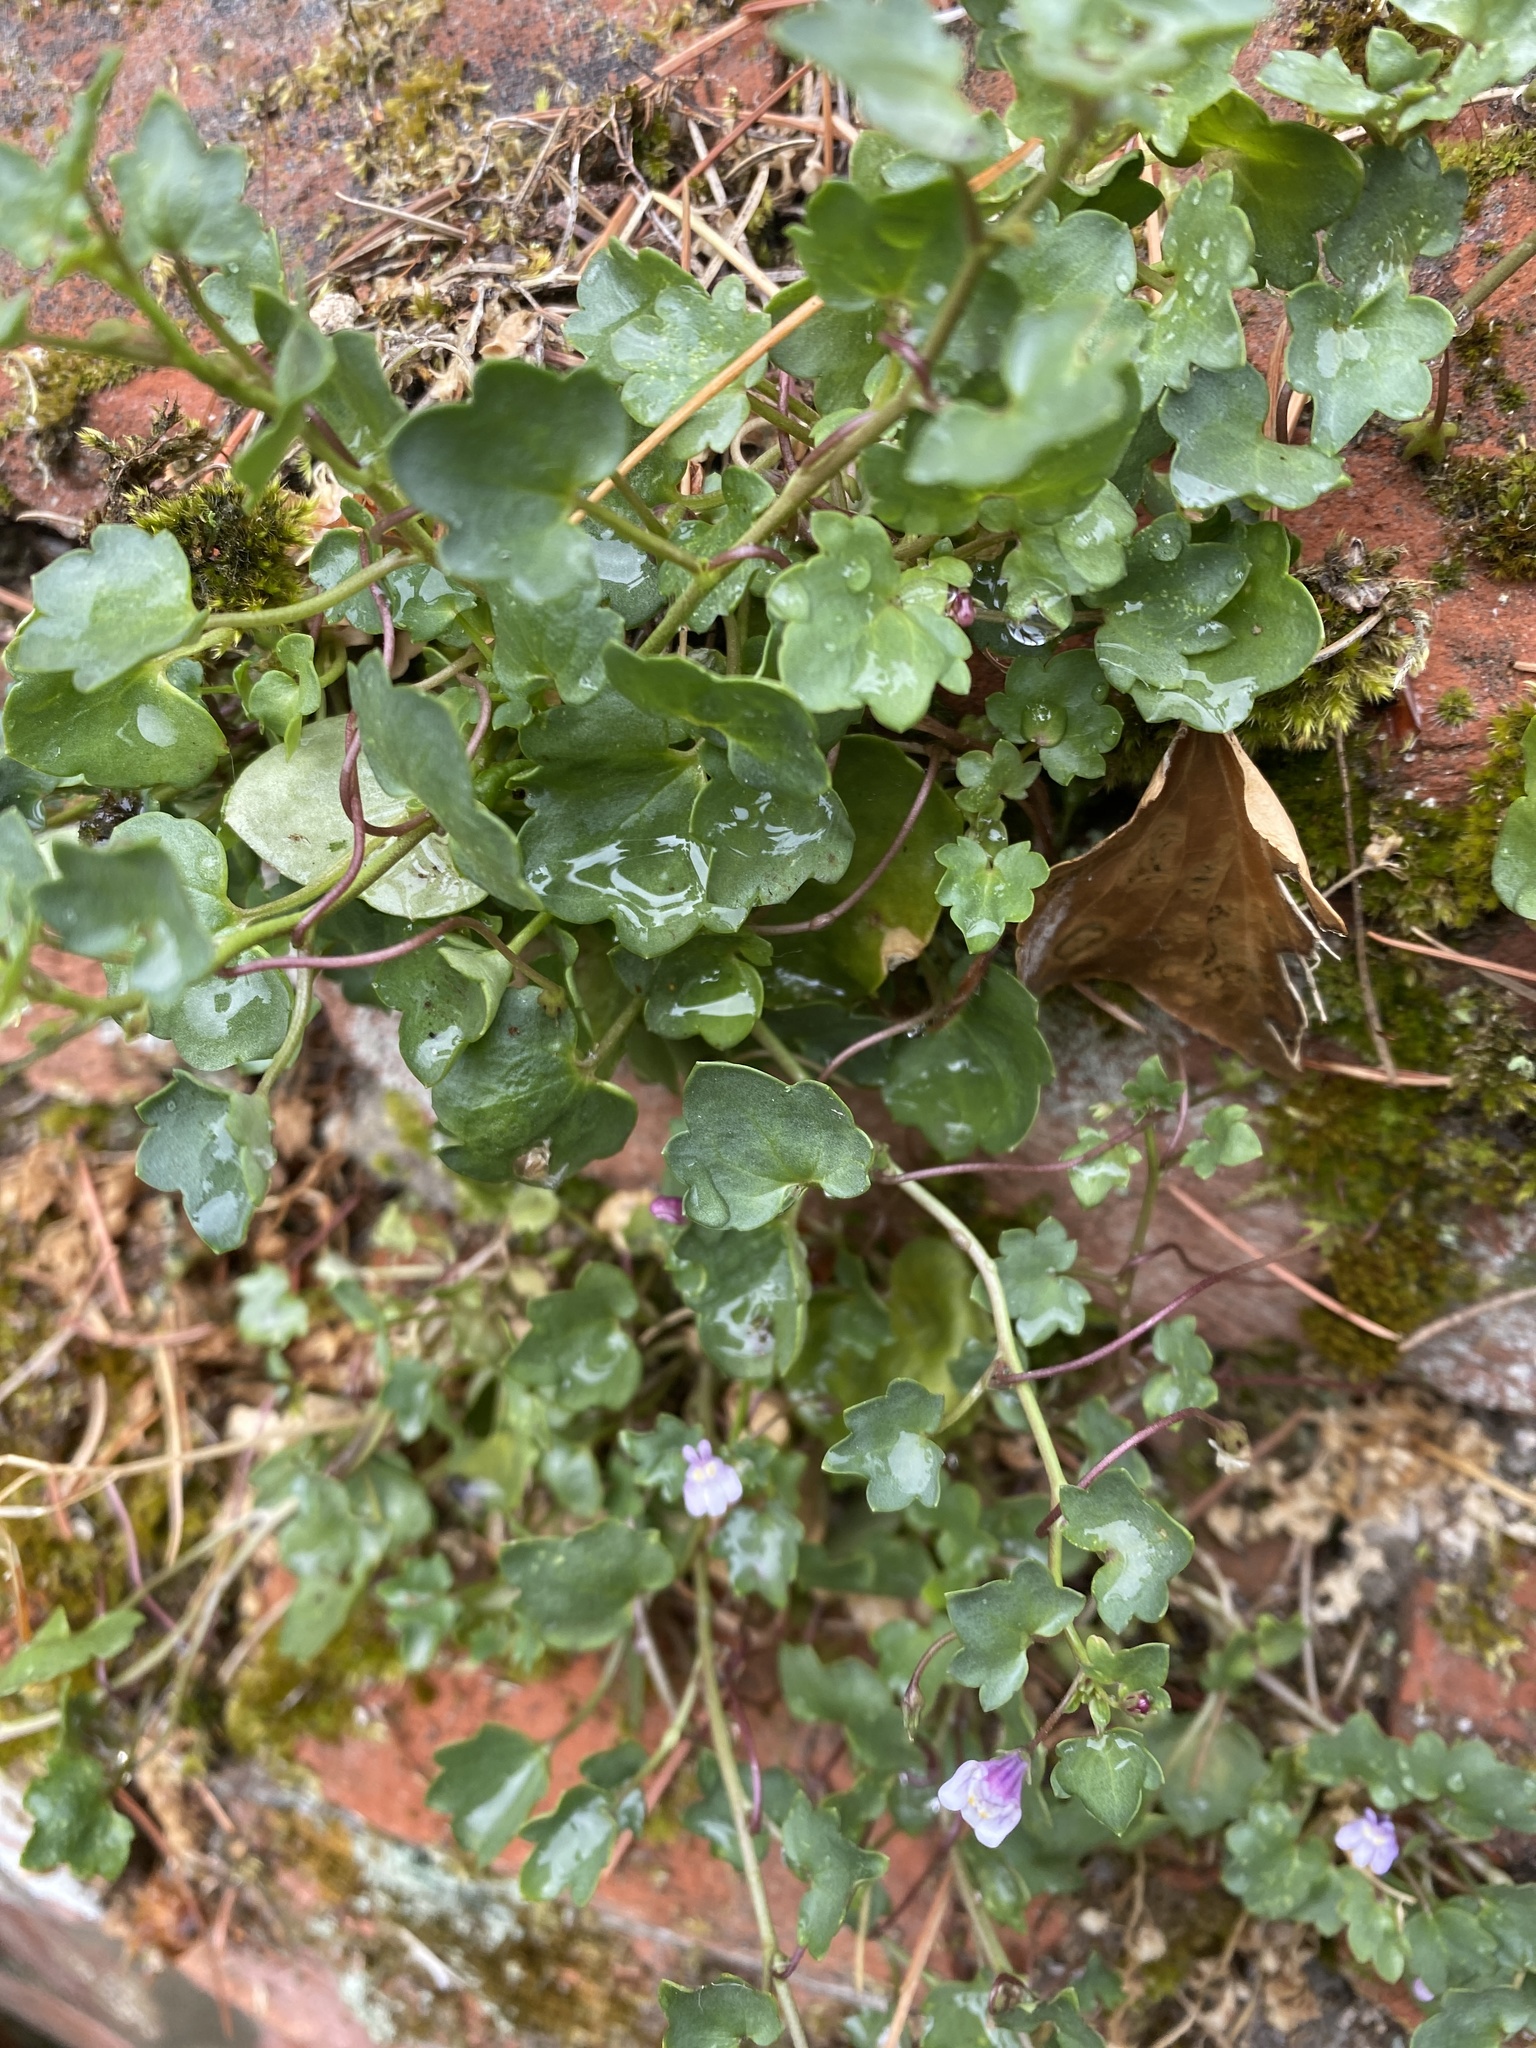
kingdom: Plantae
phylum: Tracheophyta
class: Magnoliopsida
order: Lamiales
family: Plantaginaceae
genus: Cymbalaria
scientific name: Cymbalaria muralis
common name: Ivy-leaved toadflax
